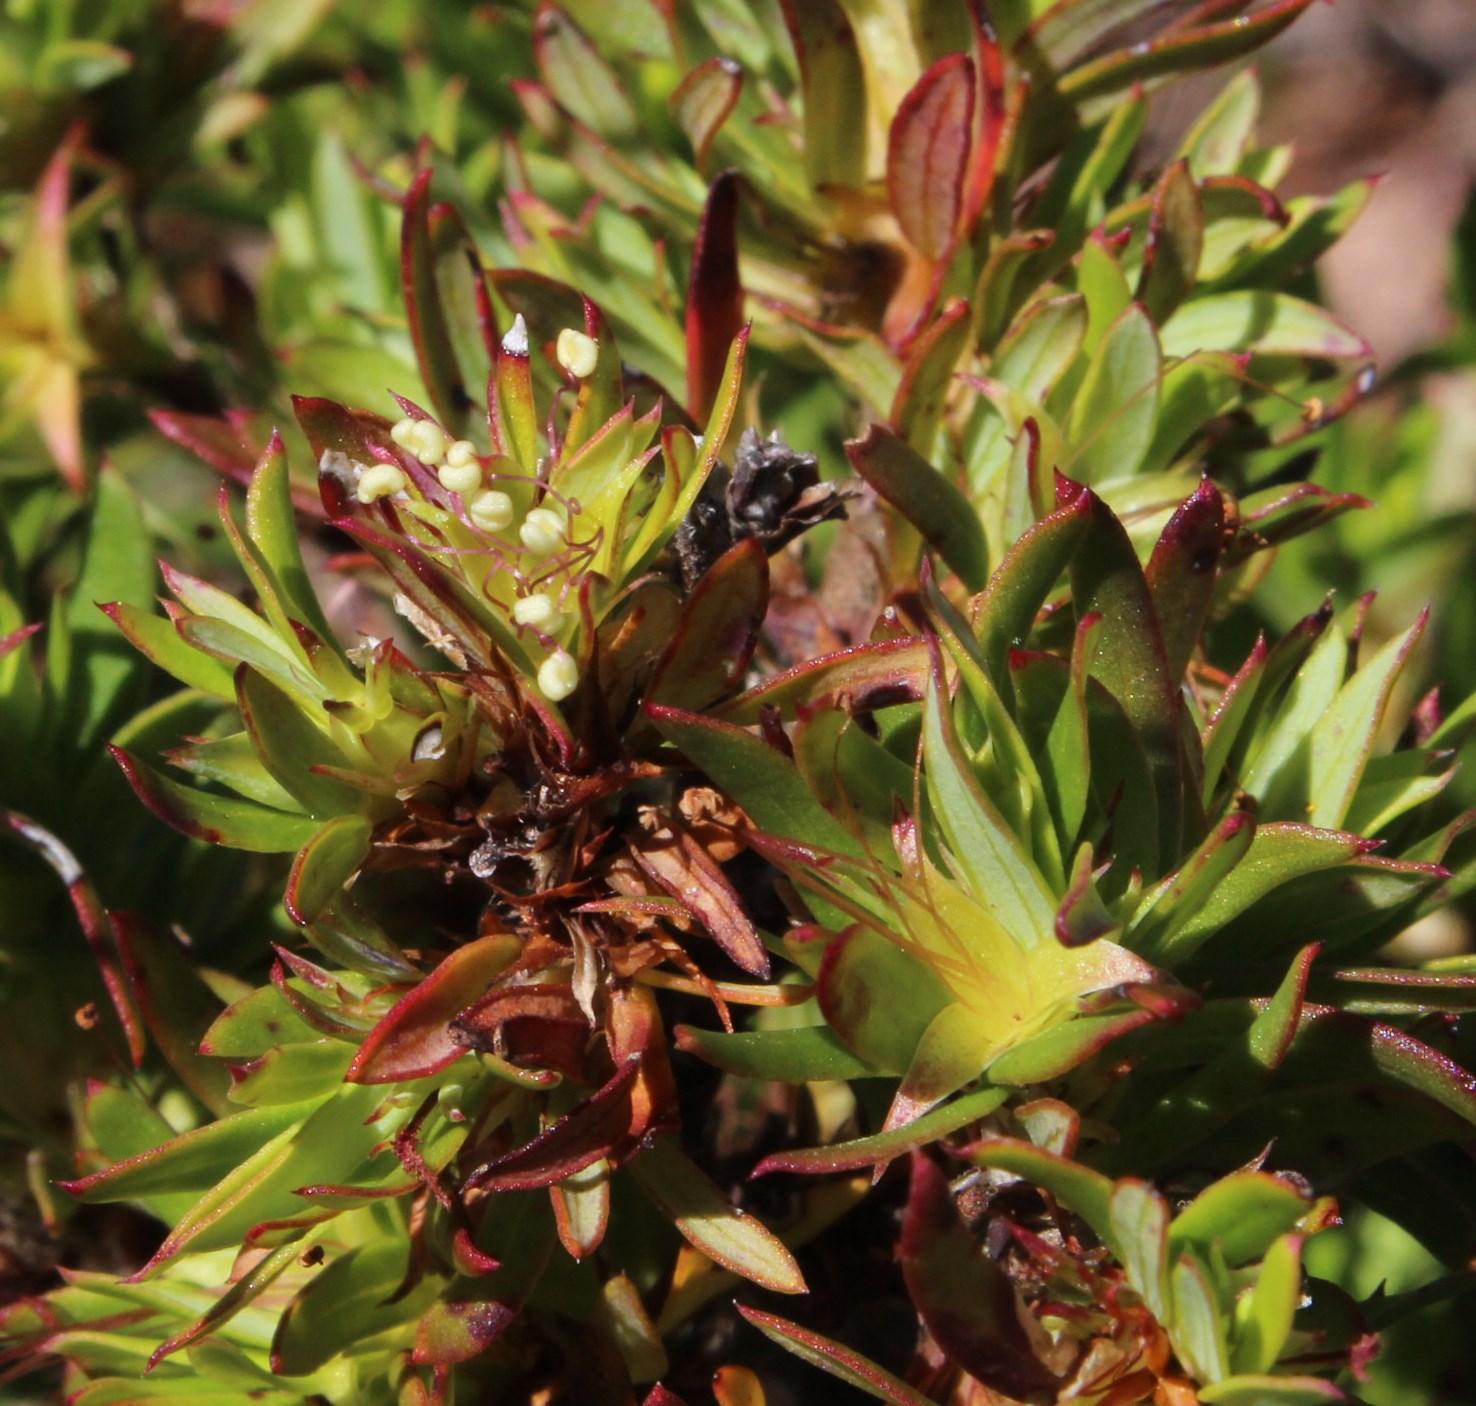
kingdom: Plantae
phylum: Tracheophyta
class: Magnoliopsida
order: Rosales
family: Rosaceae
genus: Cliffortia
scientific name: Cliffortia apiculata
